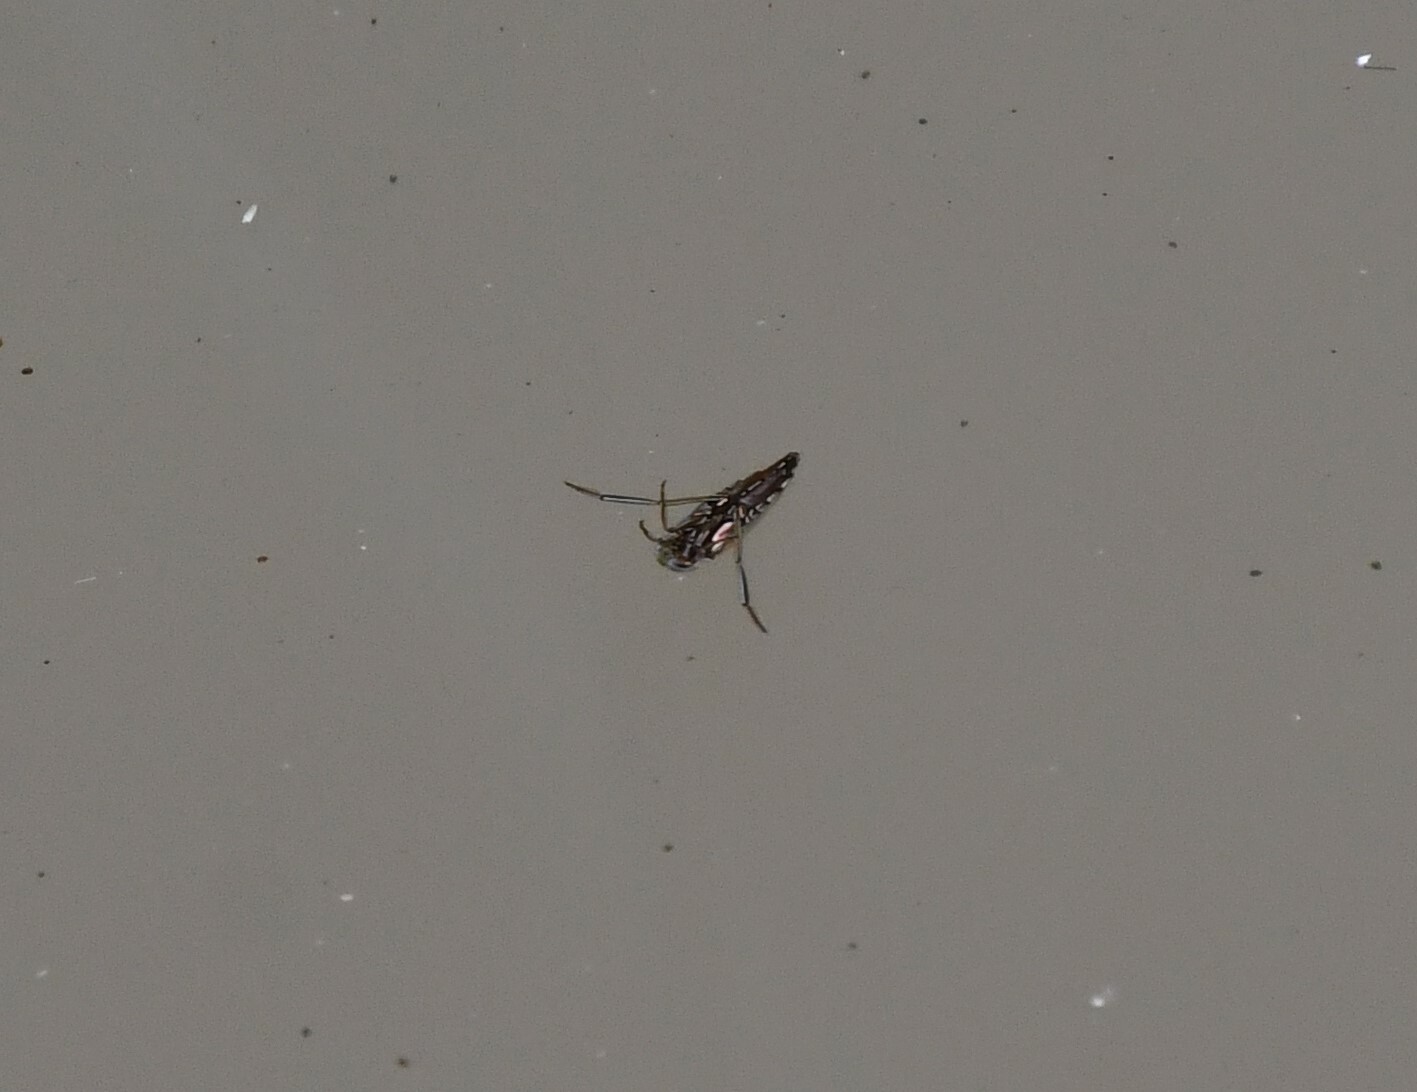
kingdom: Animalia
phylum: Arthropoda
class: Insecta
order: Hemiptera
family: Notonectidae
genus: Enithares
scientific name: Enithares
